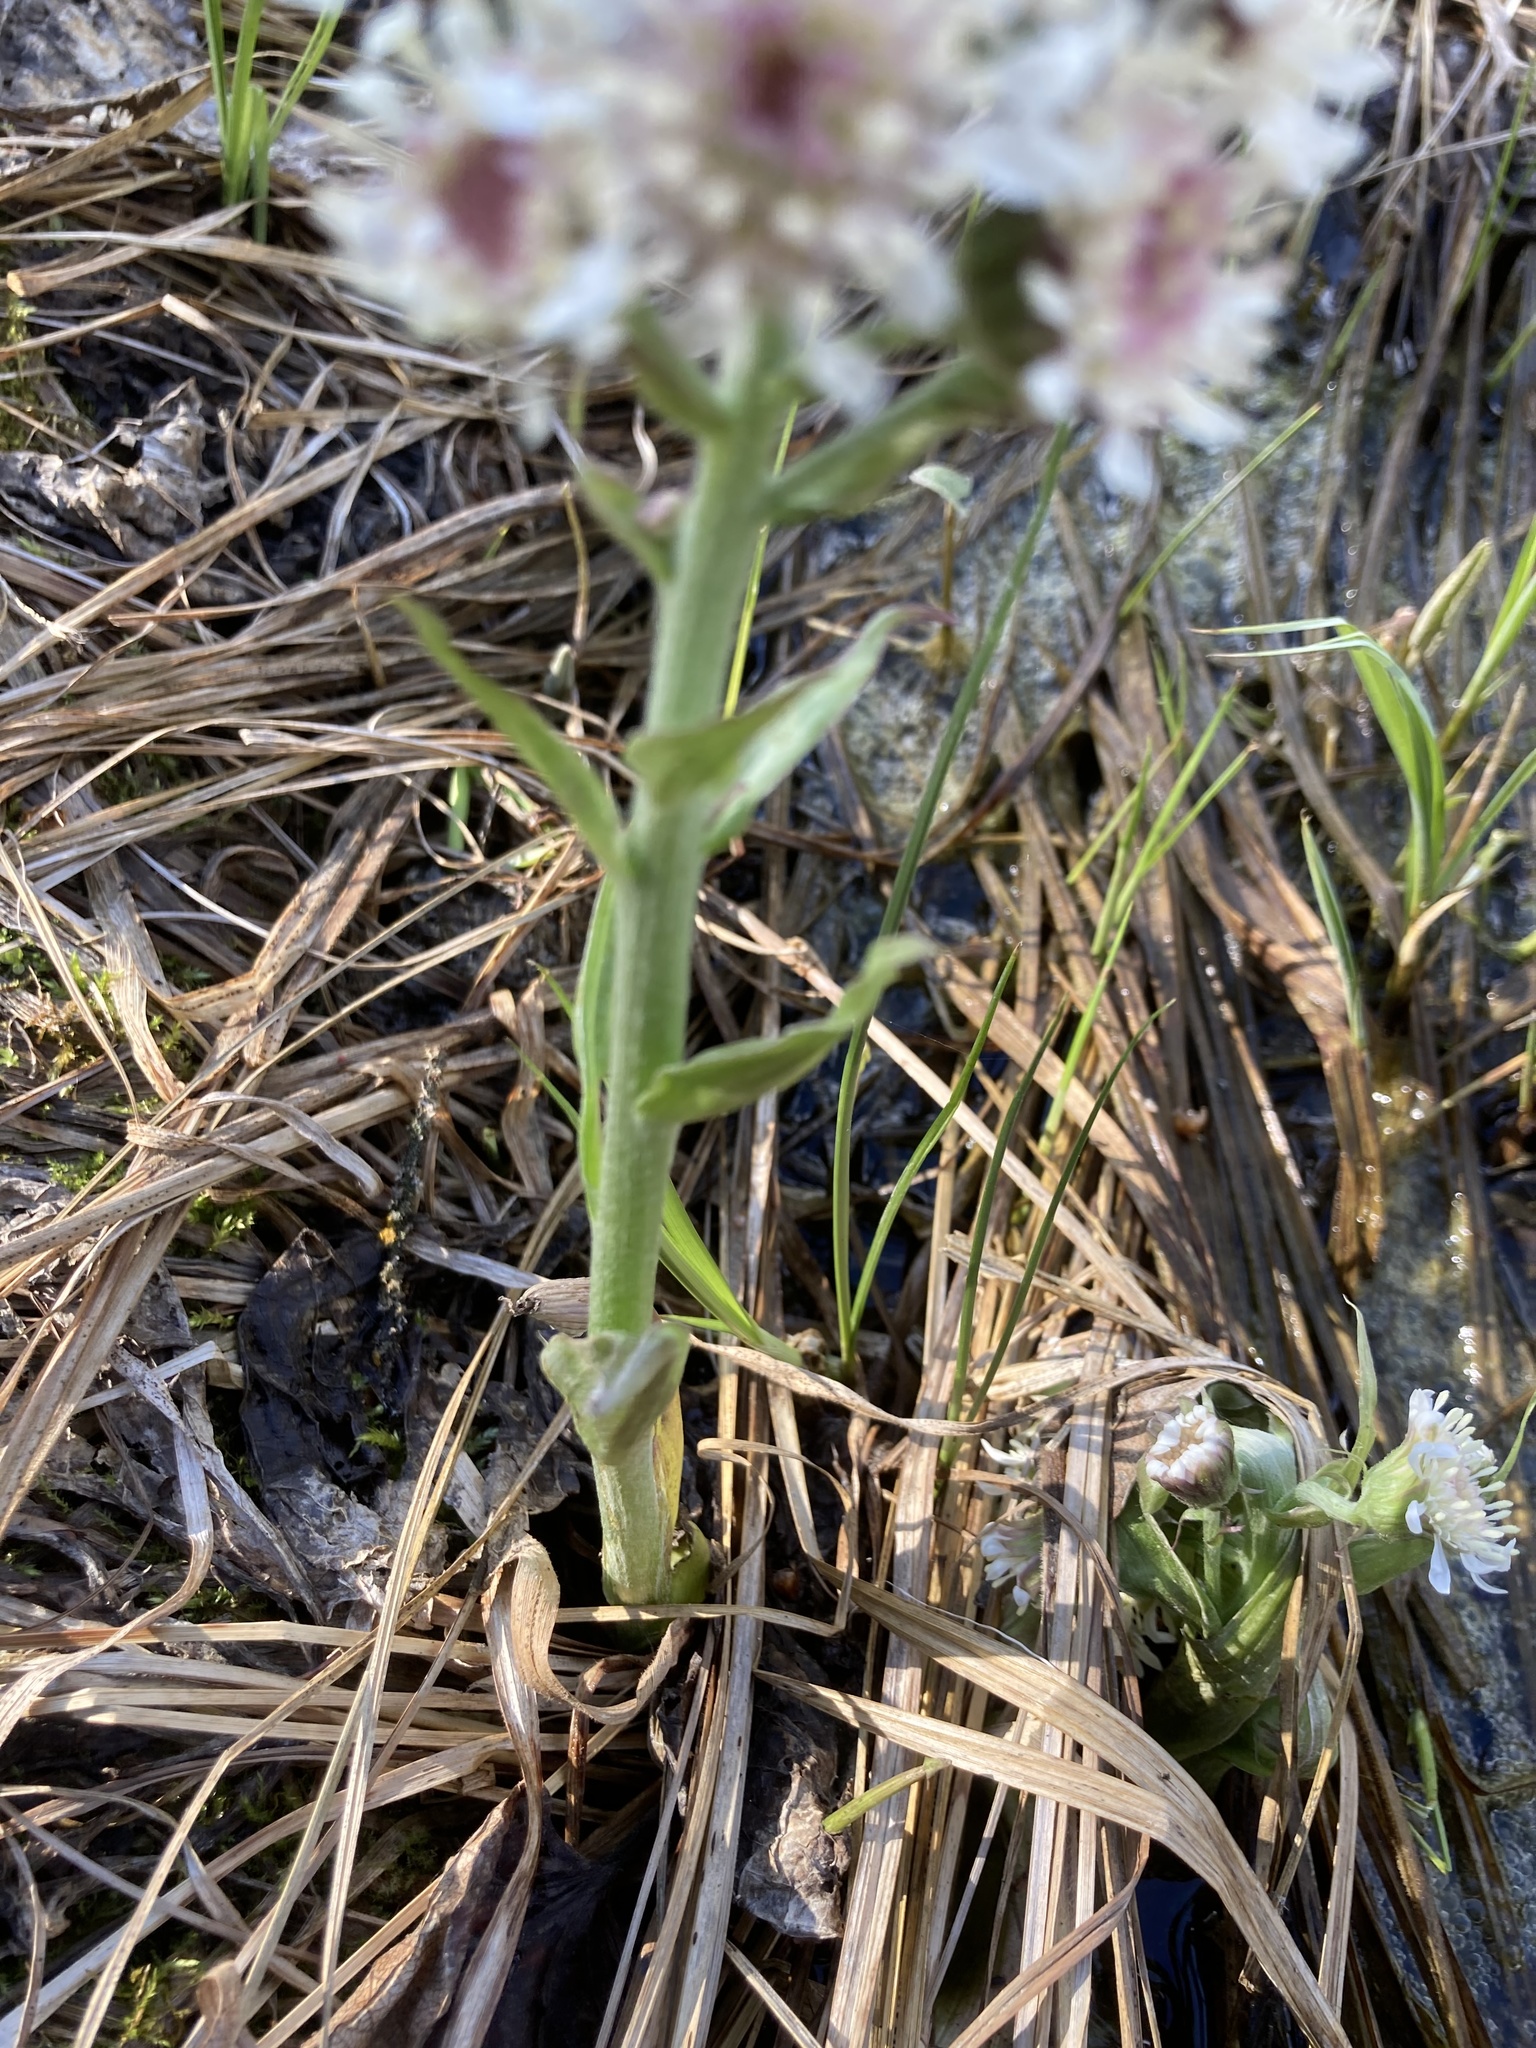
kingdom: Plantae
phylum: Tracheophyta
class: Magnoliopsida
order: Asterales
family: Asteraceae
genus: Petasites
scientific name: Petasites frigidus
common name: Arctic butterbur
